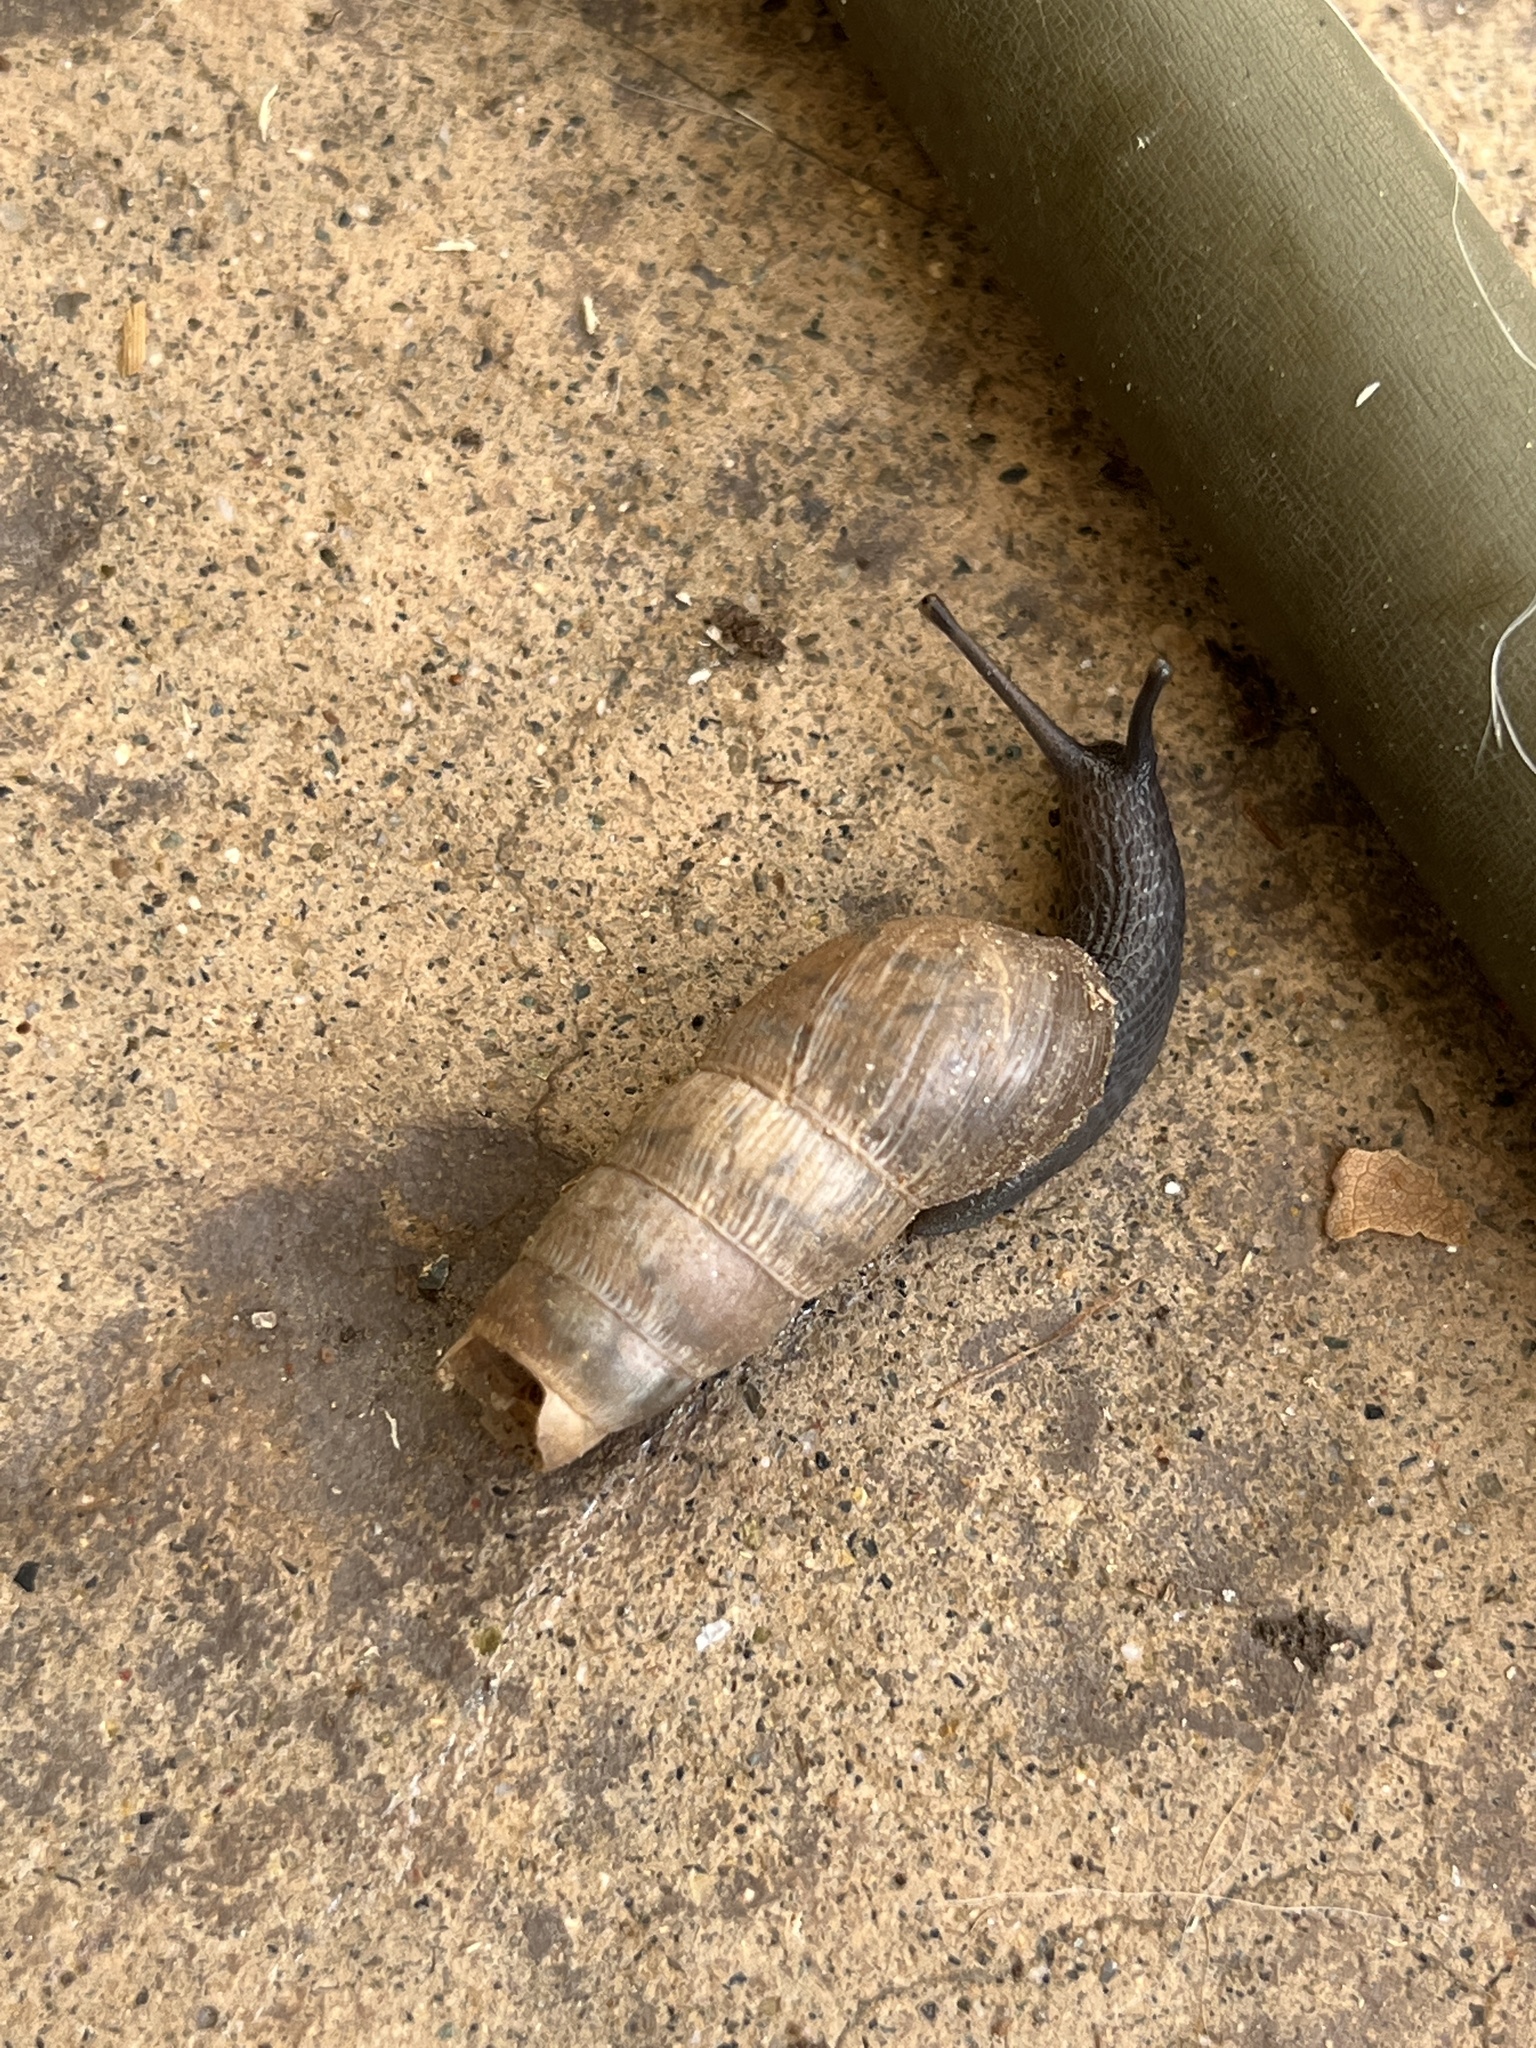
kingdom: Animalia
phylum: Mollusca
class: Gastropoda
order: Stylommatophora
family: Achatinidae
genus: Rumina
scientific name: Rumina decollata
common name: Decollate snail
